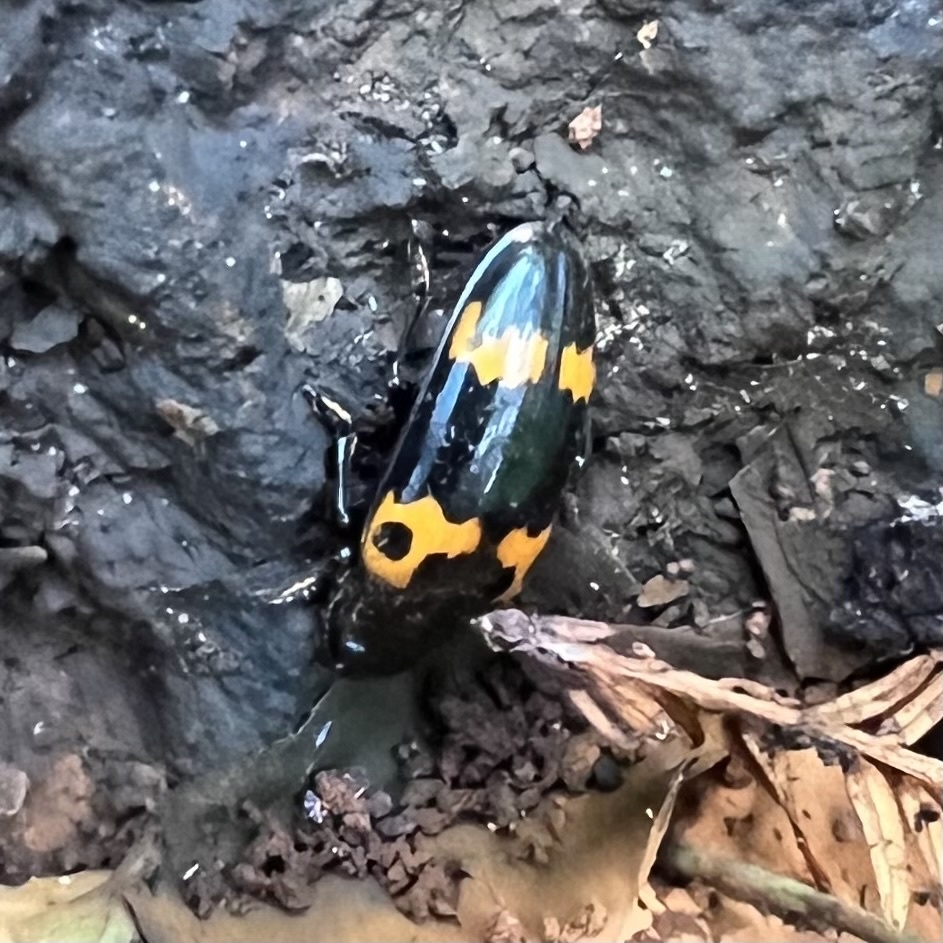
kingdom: Animalia
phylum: Arthropoda
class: Insecta
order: Coleoptera
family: Erotylidae
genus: Megalodacne
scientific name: Megalodacne fasciata
